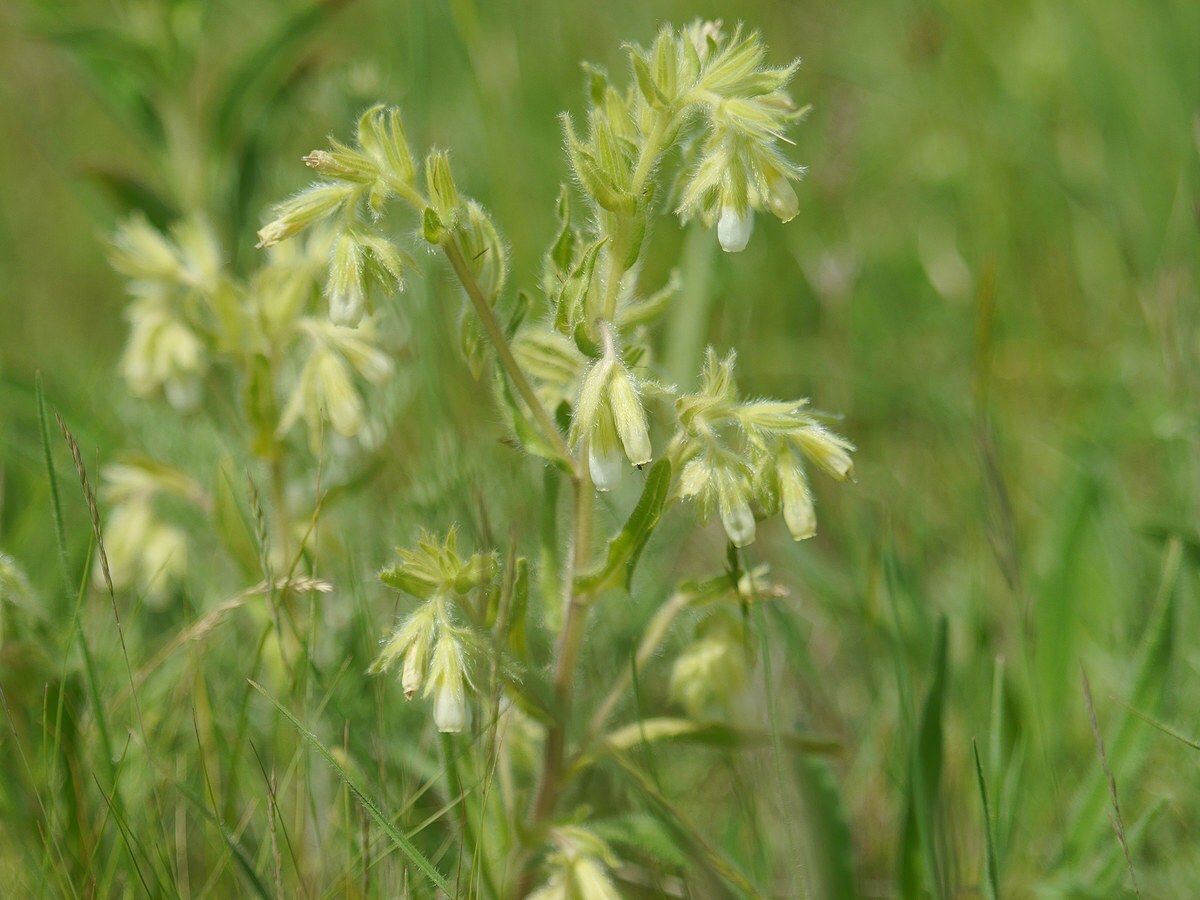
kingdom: Plantae
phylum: Tracheophyta
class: Magnoliopsida
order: Boraginales
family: Boraginaceae
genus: Onosma
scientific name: Onosma visianii
